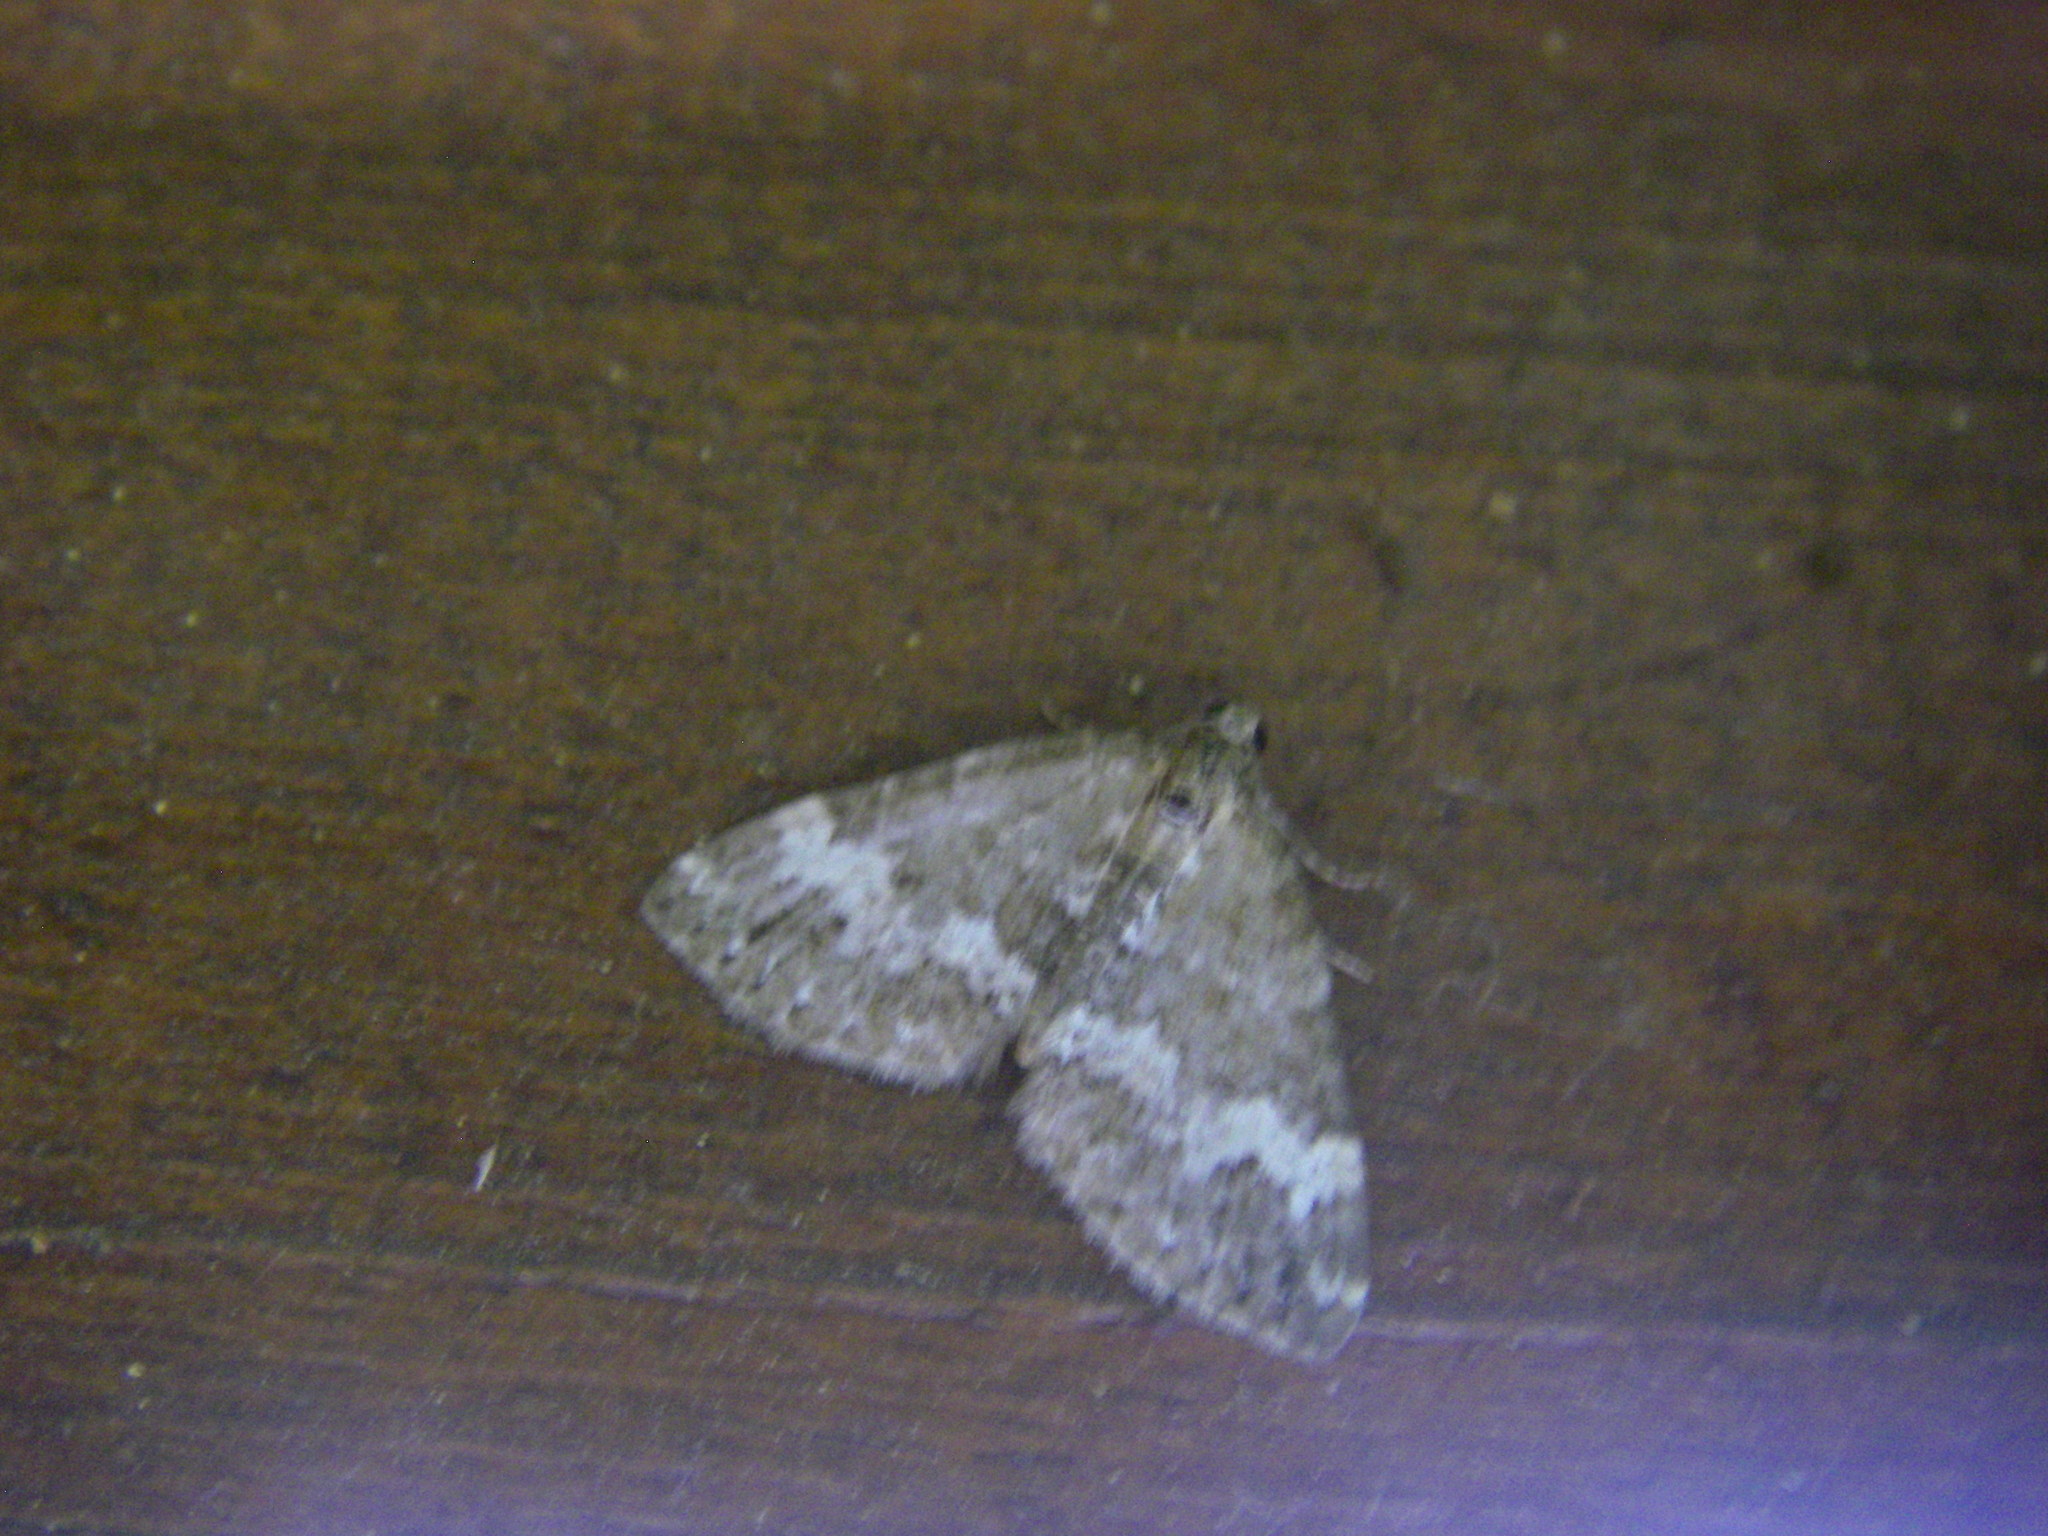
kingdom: Animalia
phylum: Arthropoda
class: Insecta
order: Lepidoptera
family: Geometridae
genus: Perizoma
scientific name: Perizoma alchemillata
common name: Small rivulet
